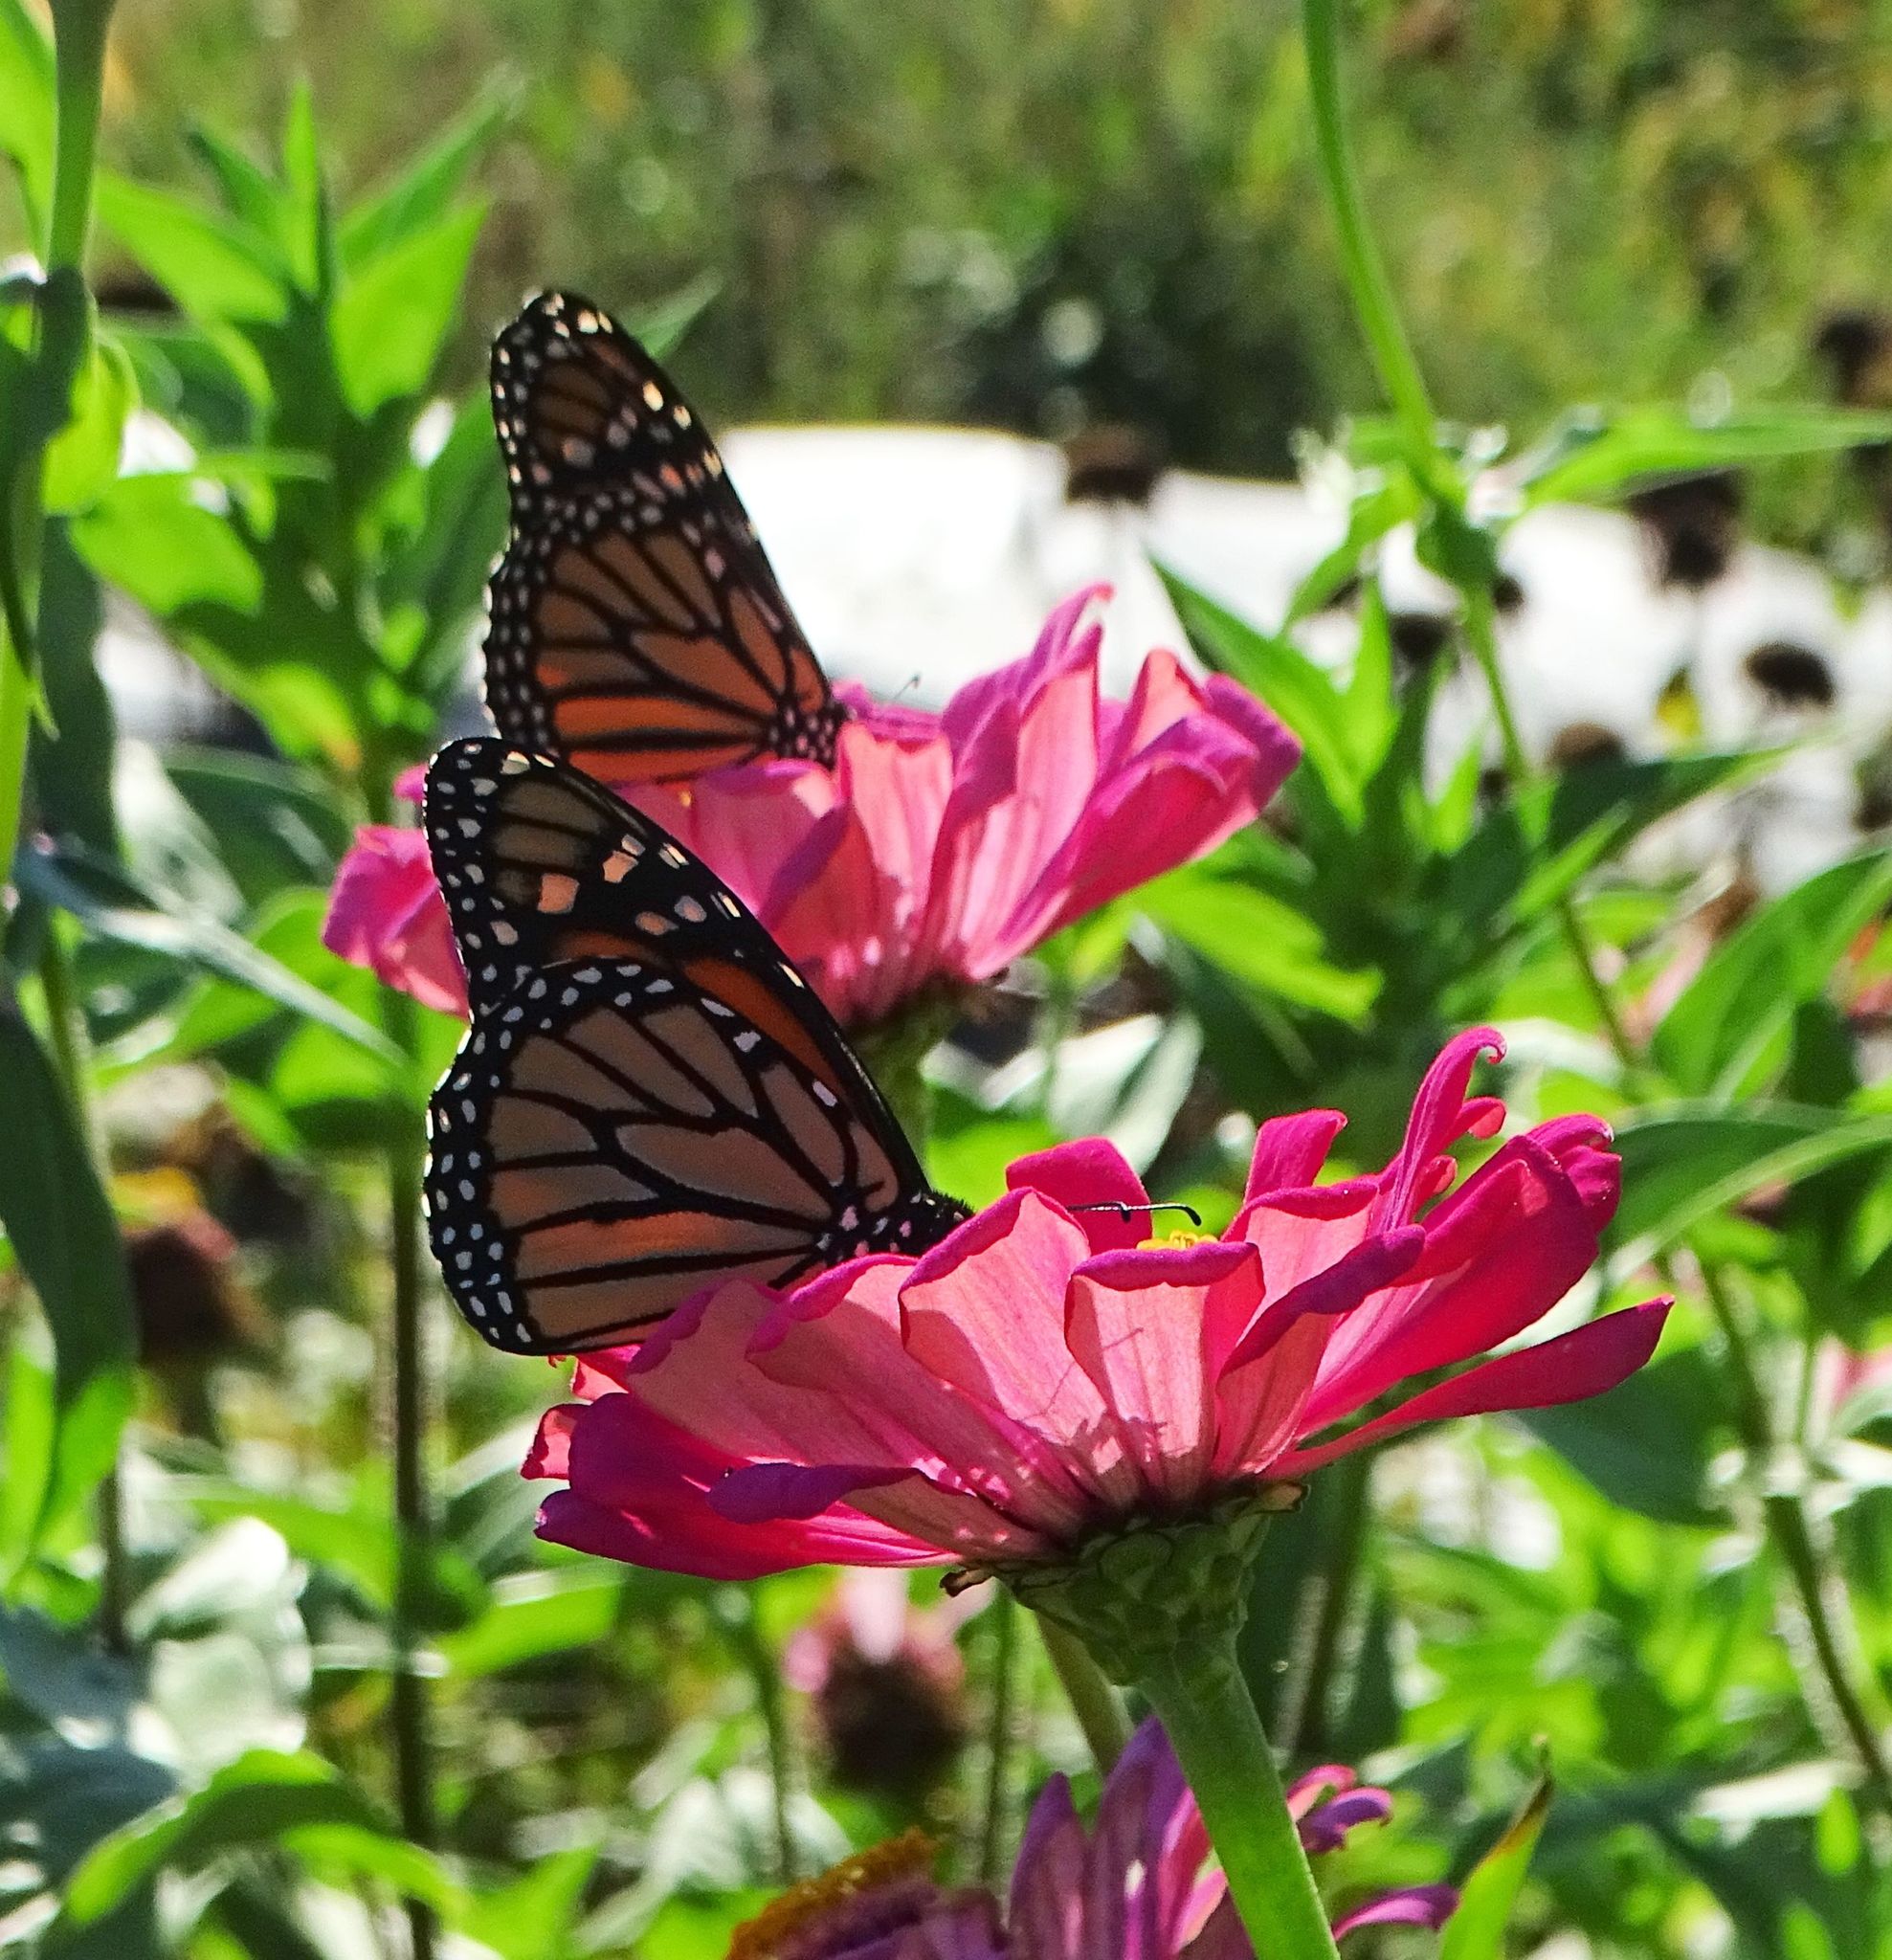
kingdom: Animalia
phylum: Arthropoda
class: Insecta
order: Lepidoptera
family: Nymphalidae
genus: Danaus
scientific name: Danaus plexippus
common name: Monarch
